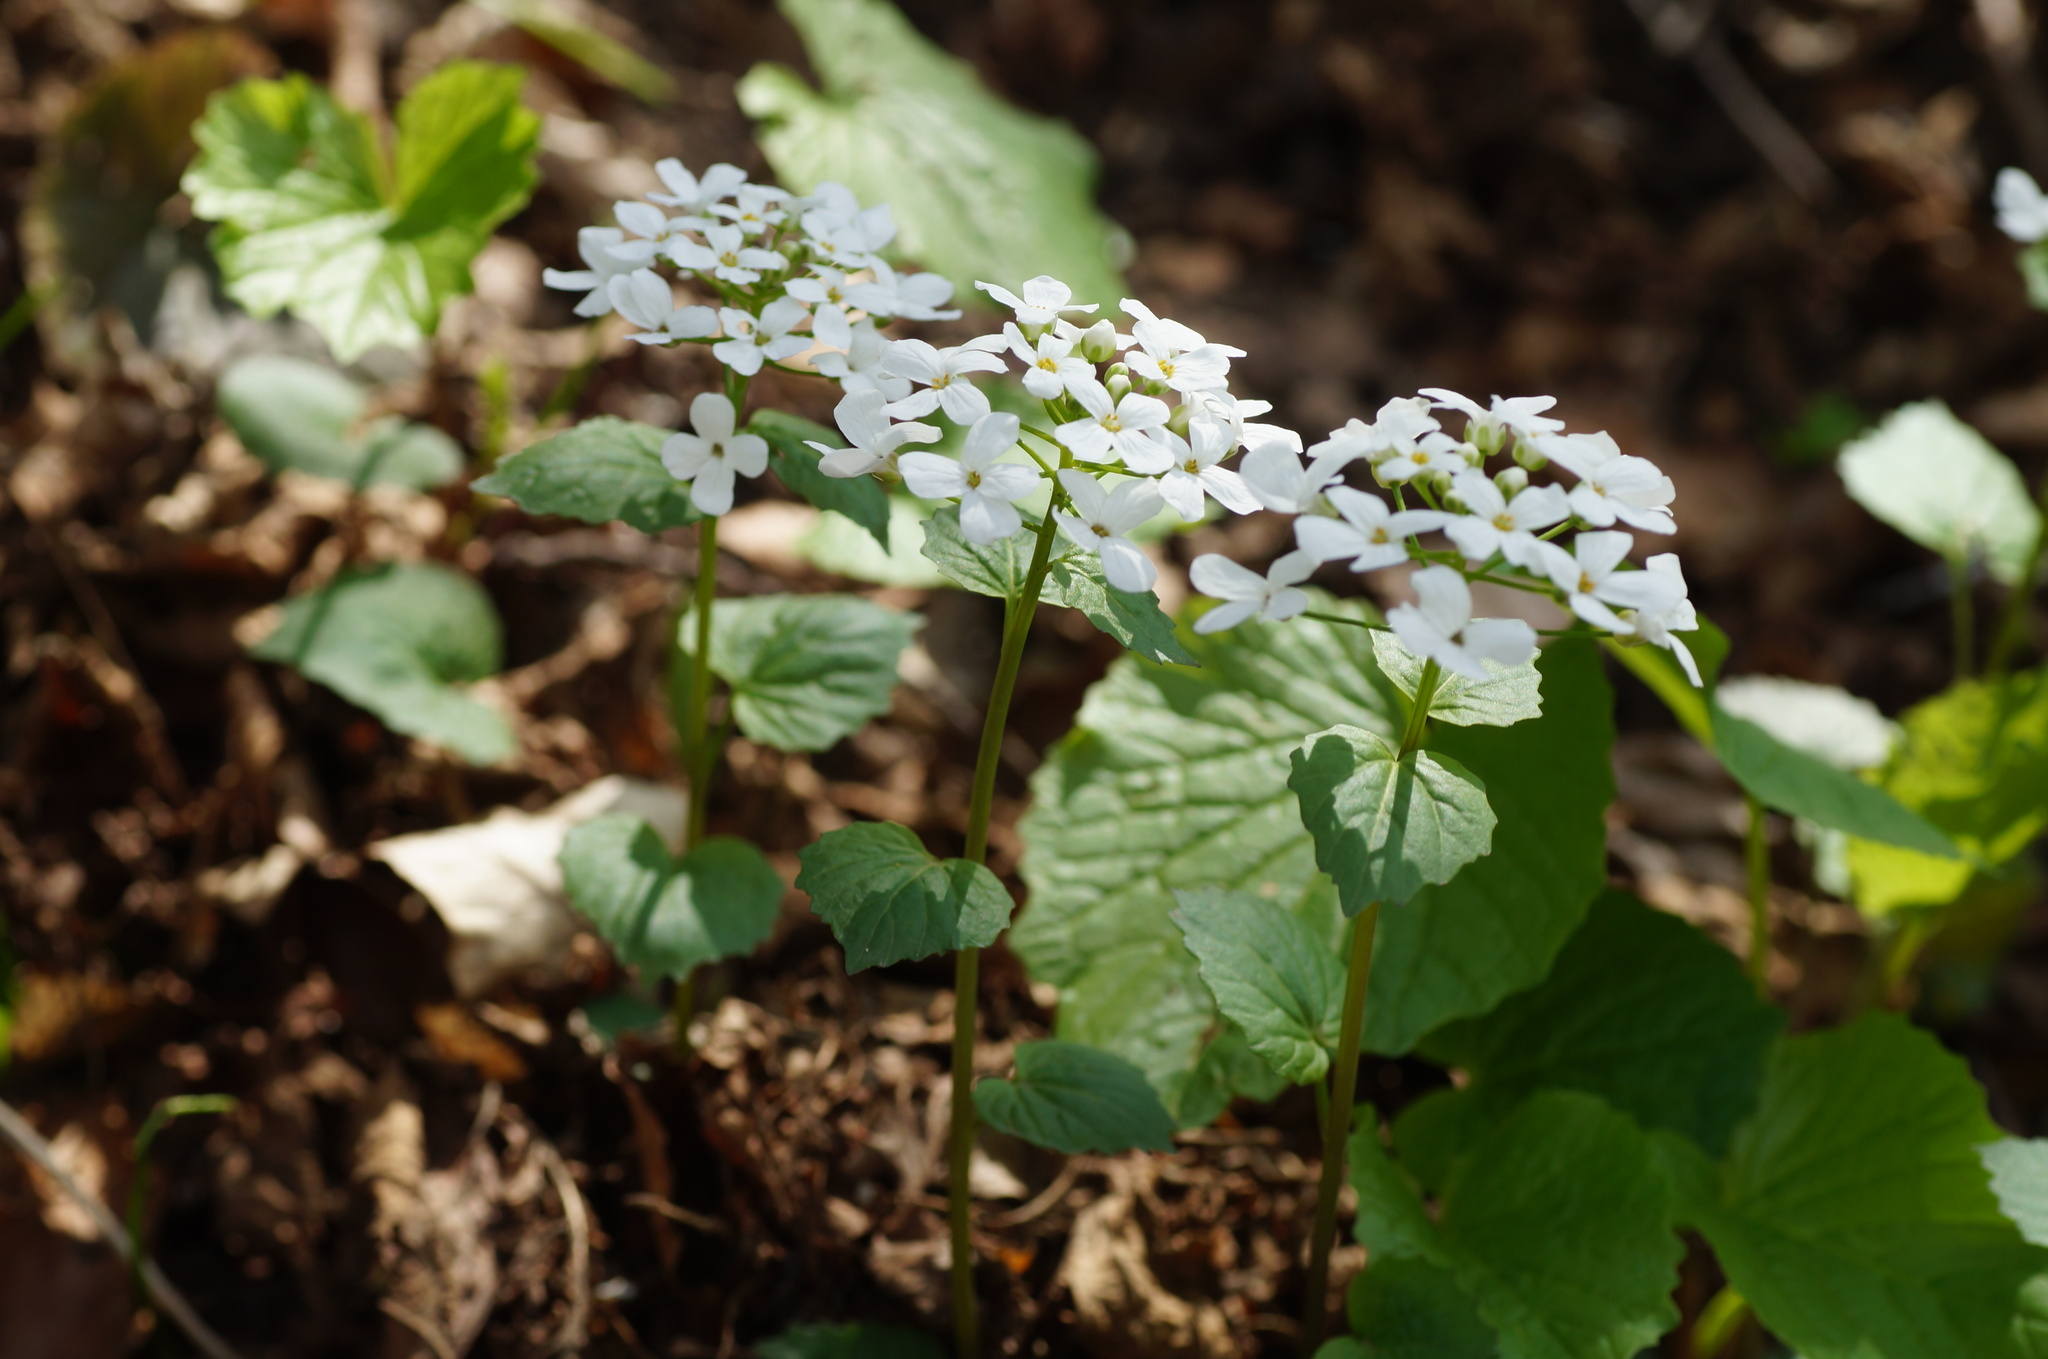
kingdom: Plantae
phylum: Tracheophyta
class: Magnoliopsida
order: Brassicales
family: Brassicaceae
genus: Pachyphragma
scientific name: Pachyphragma macrophyllum
